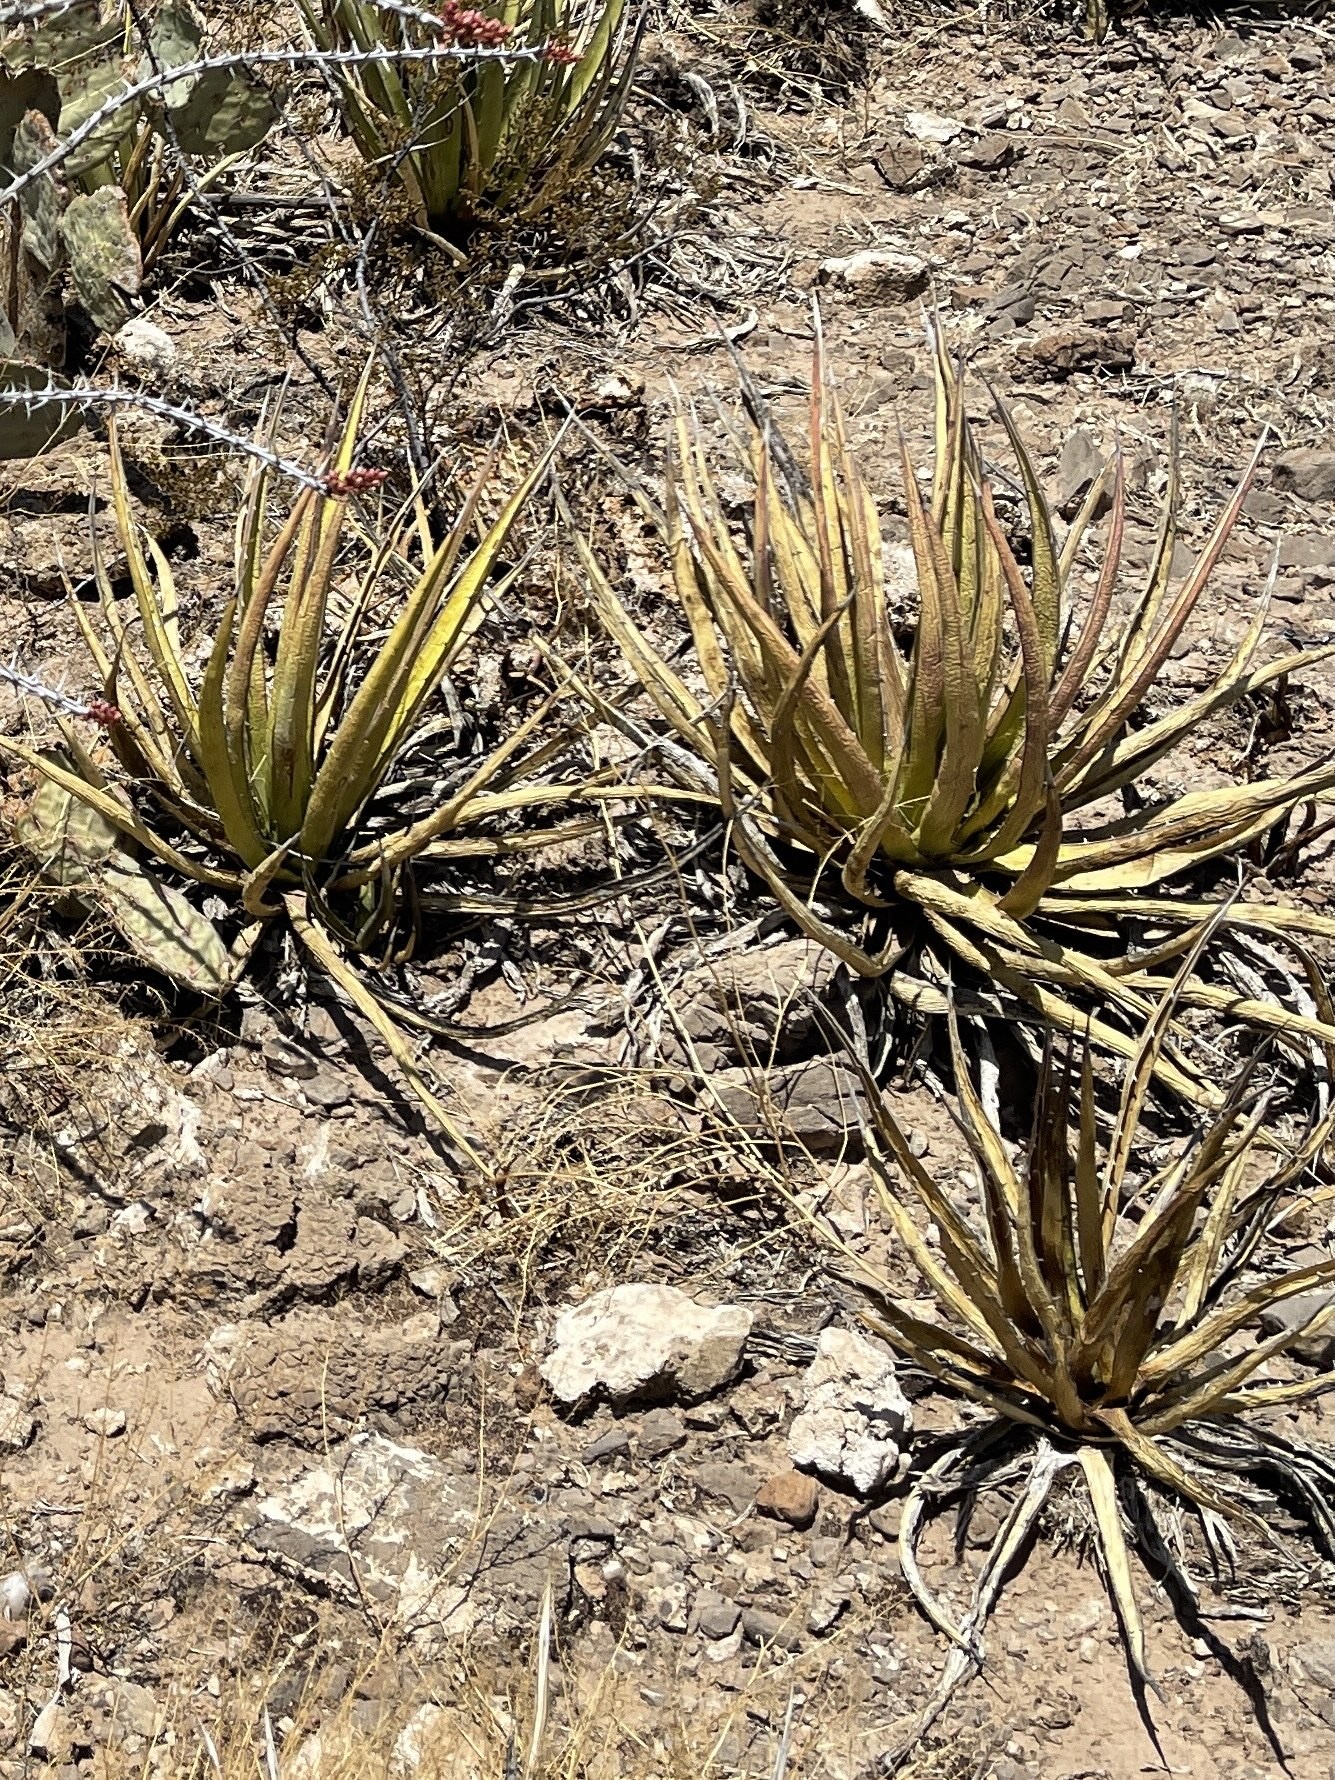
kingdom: Plantae
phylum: Tracheophyta
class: Liliopsida
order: Asparagales
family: Asparagaceae
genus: Agave
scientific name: Agave lechuguilla
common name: Lecheguilla agave
